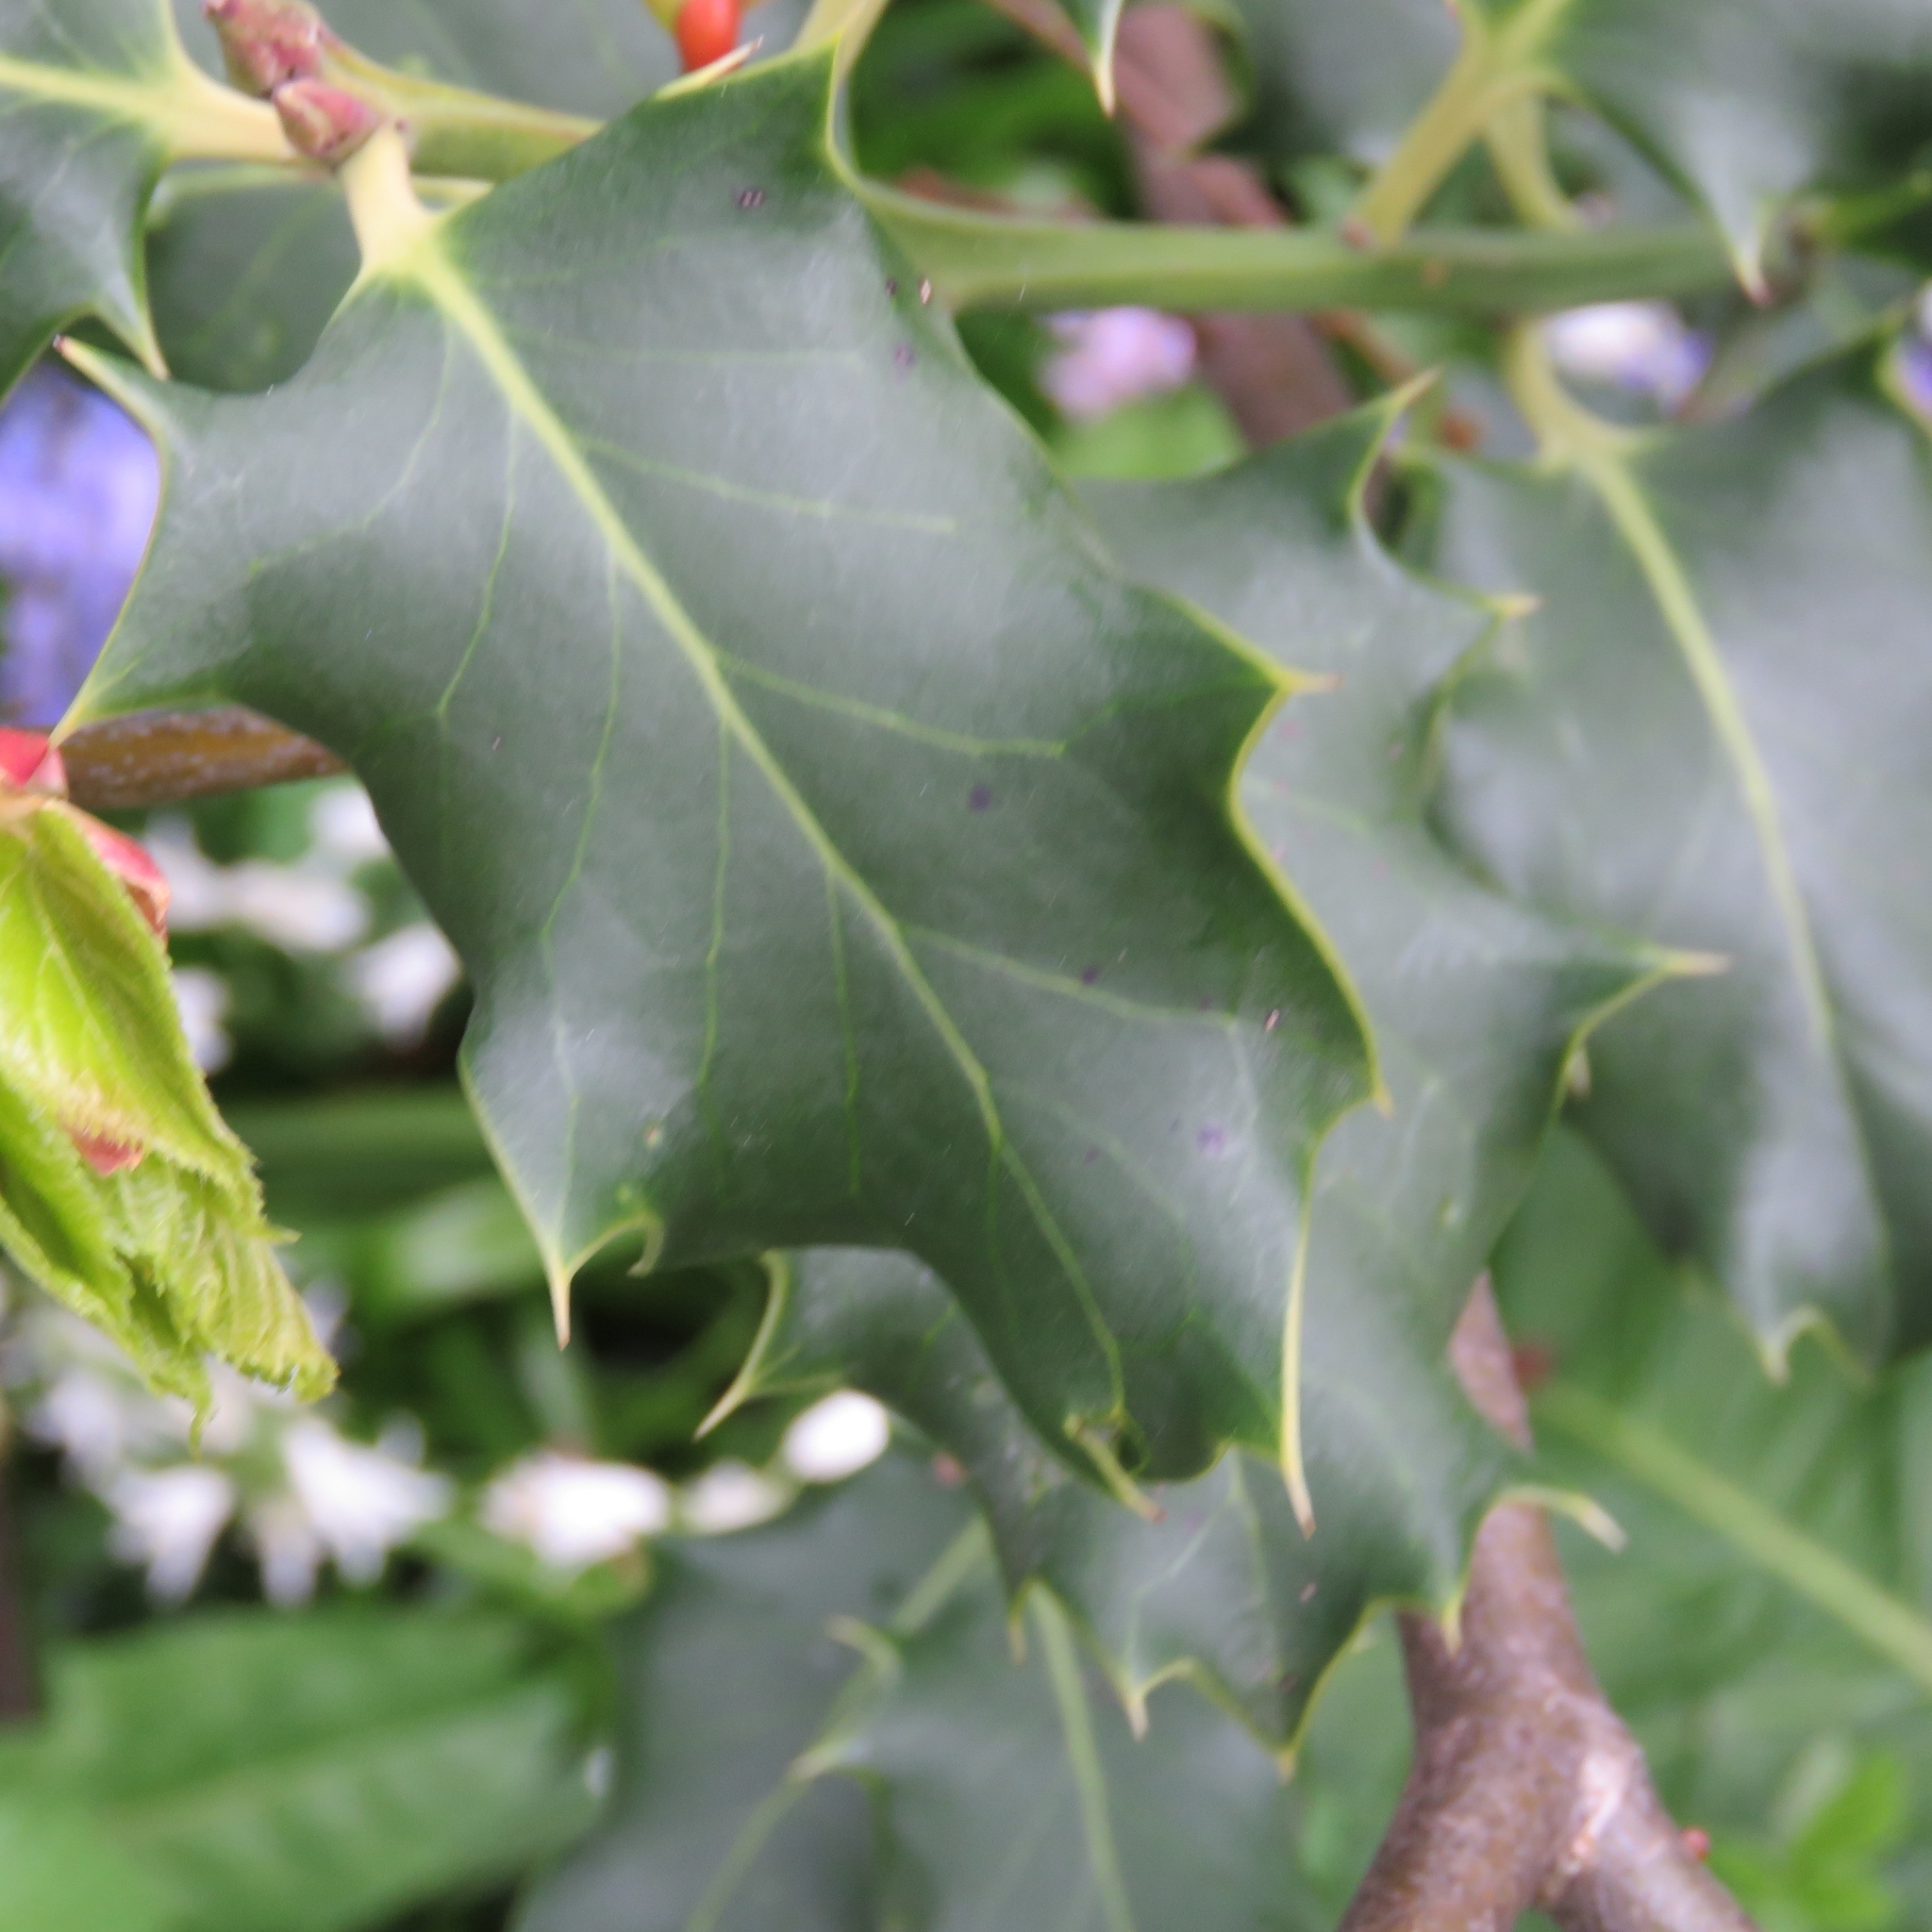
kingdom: Plantae
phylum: Tracheophyta
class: Magnoliopsida
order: Aquifoliales
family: Aquifoliaceae
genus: Ilex
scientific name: Ilex aquifolium
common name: English holly
